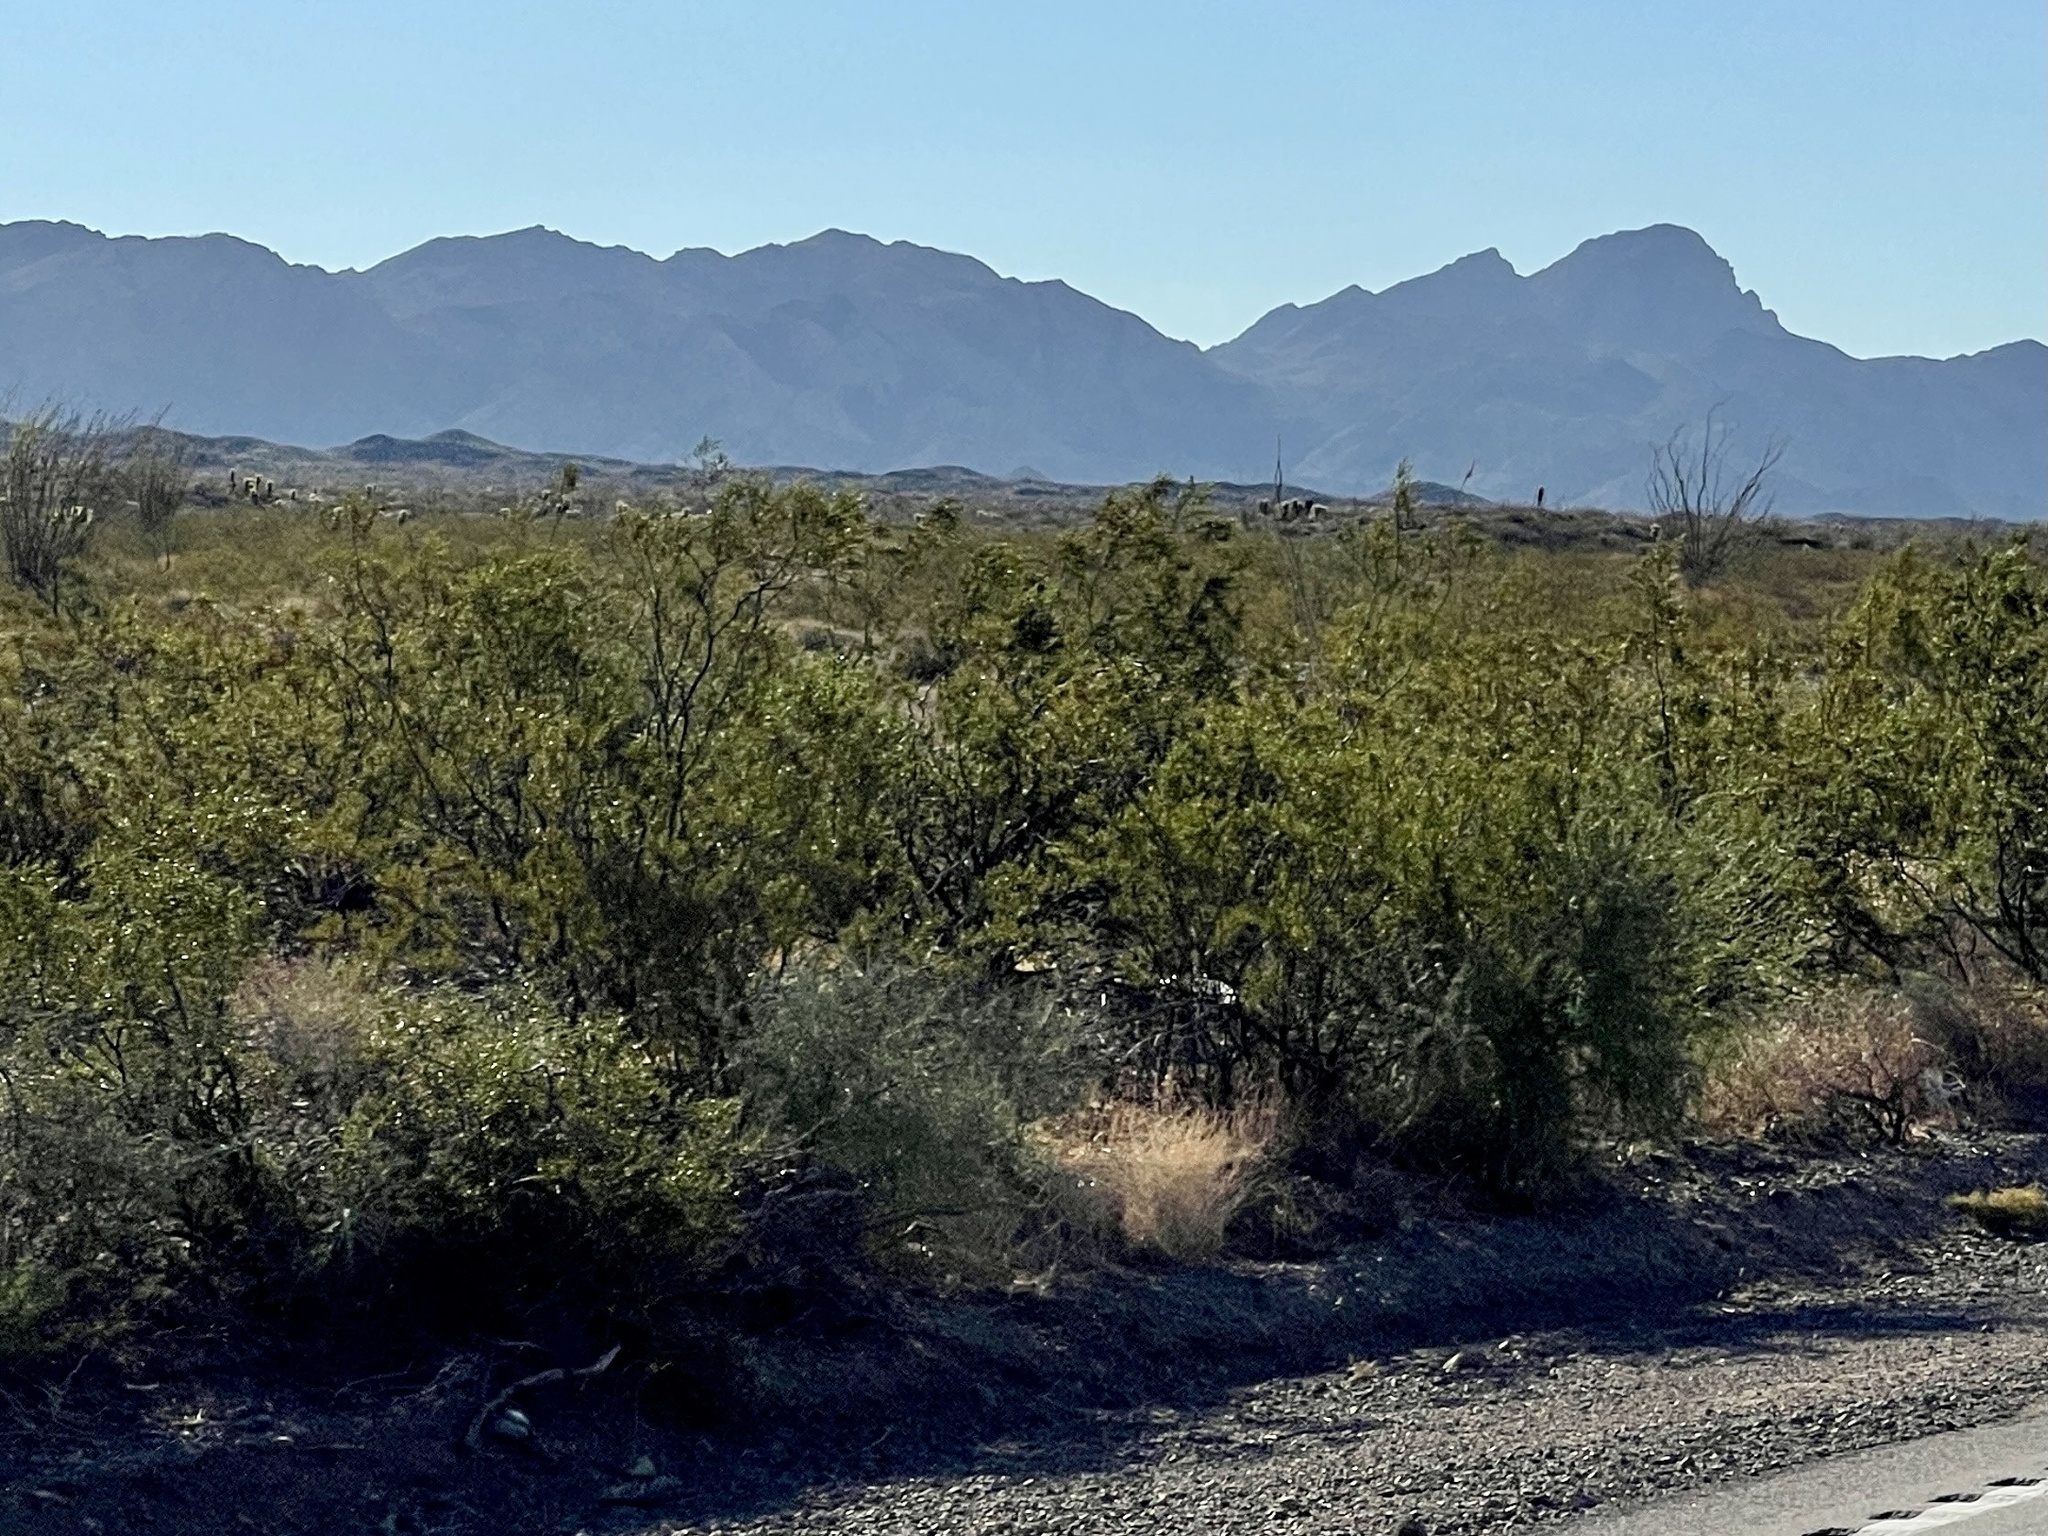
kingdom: Plantae
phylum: Tracheophyta
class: Magnoliopsida
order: Zygophyllales
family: Zygophyllaceae
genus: Larrea
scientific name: Larrea tridentata
